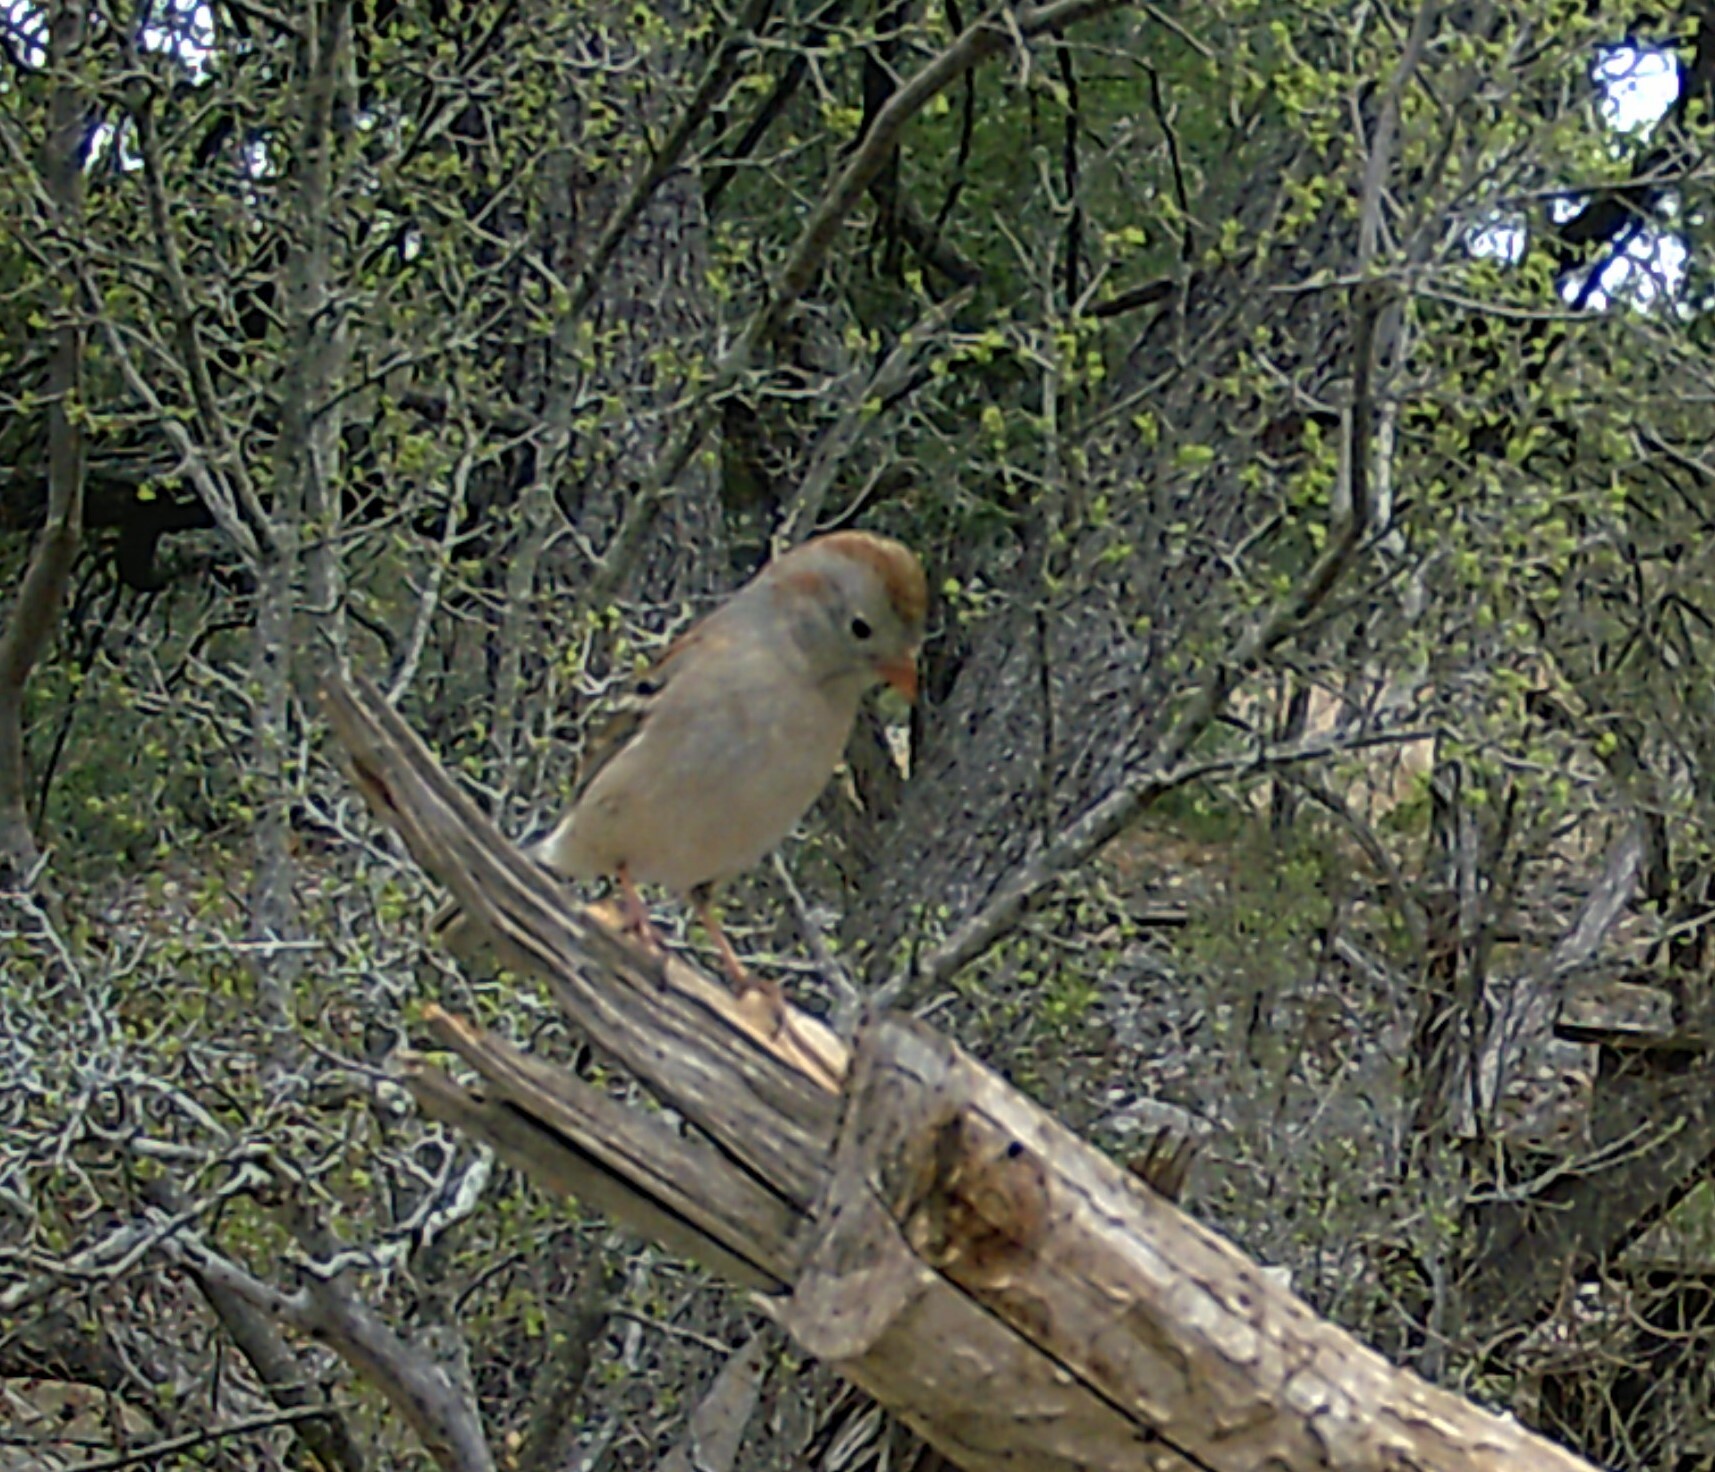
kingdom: Animalia
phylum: Chordata
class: Aves
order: Passeriformes
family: Passerellidae
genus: Spizella
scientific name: Spizella pusilla
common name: Field sparrow
